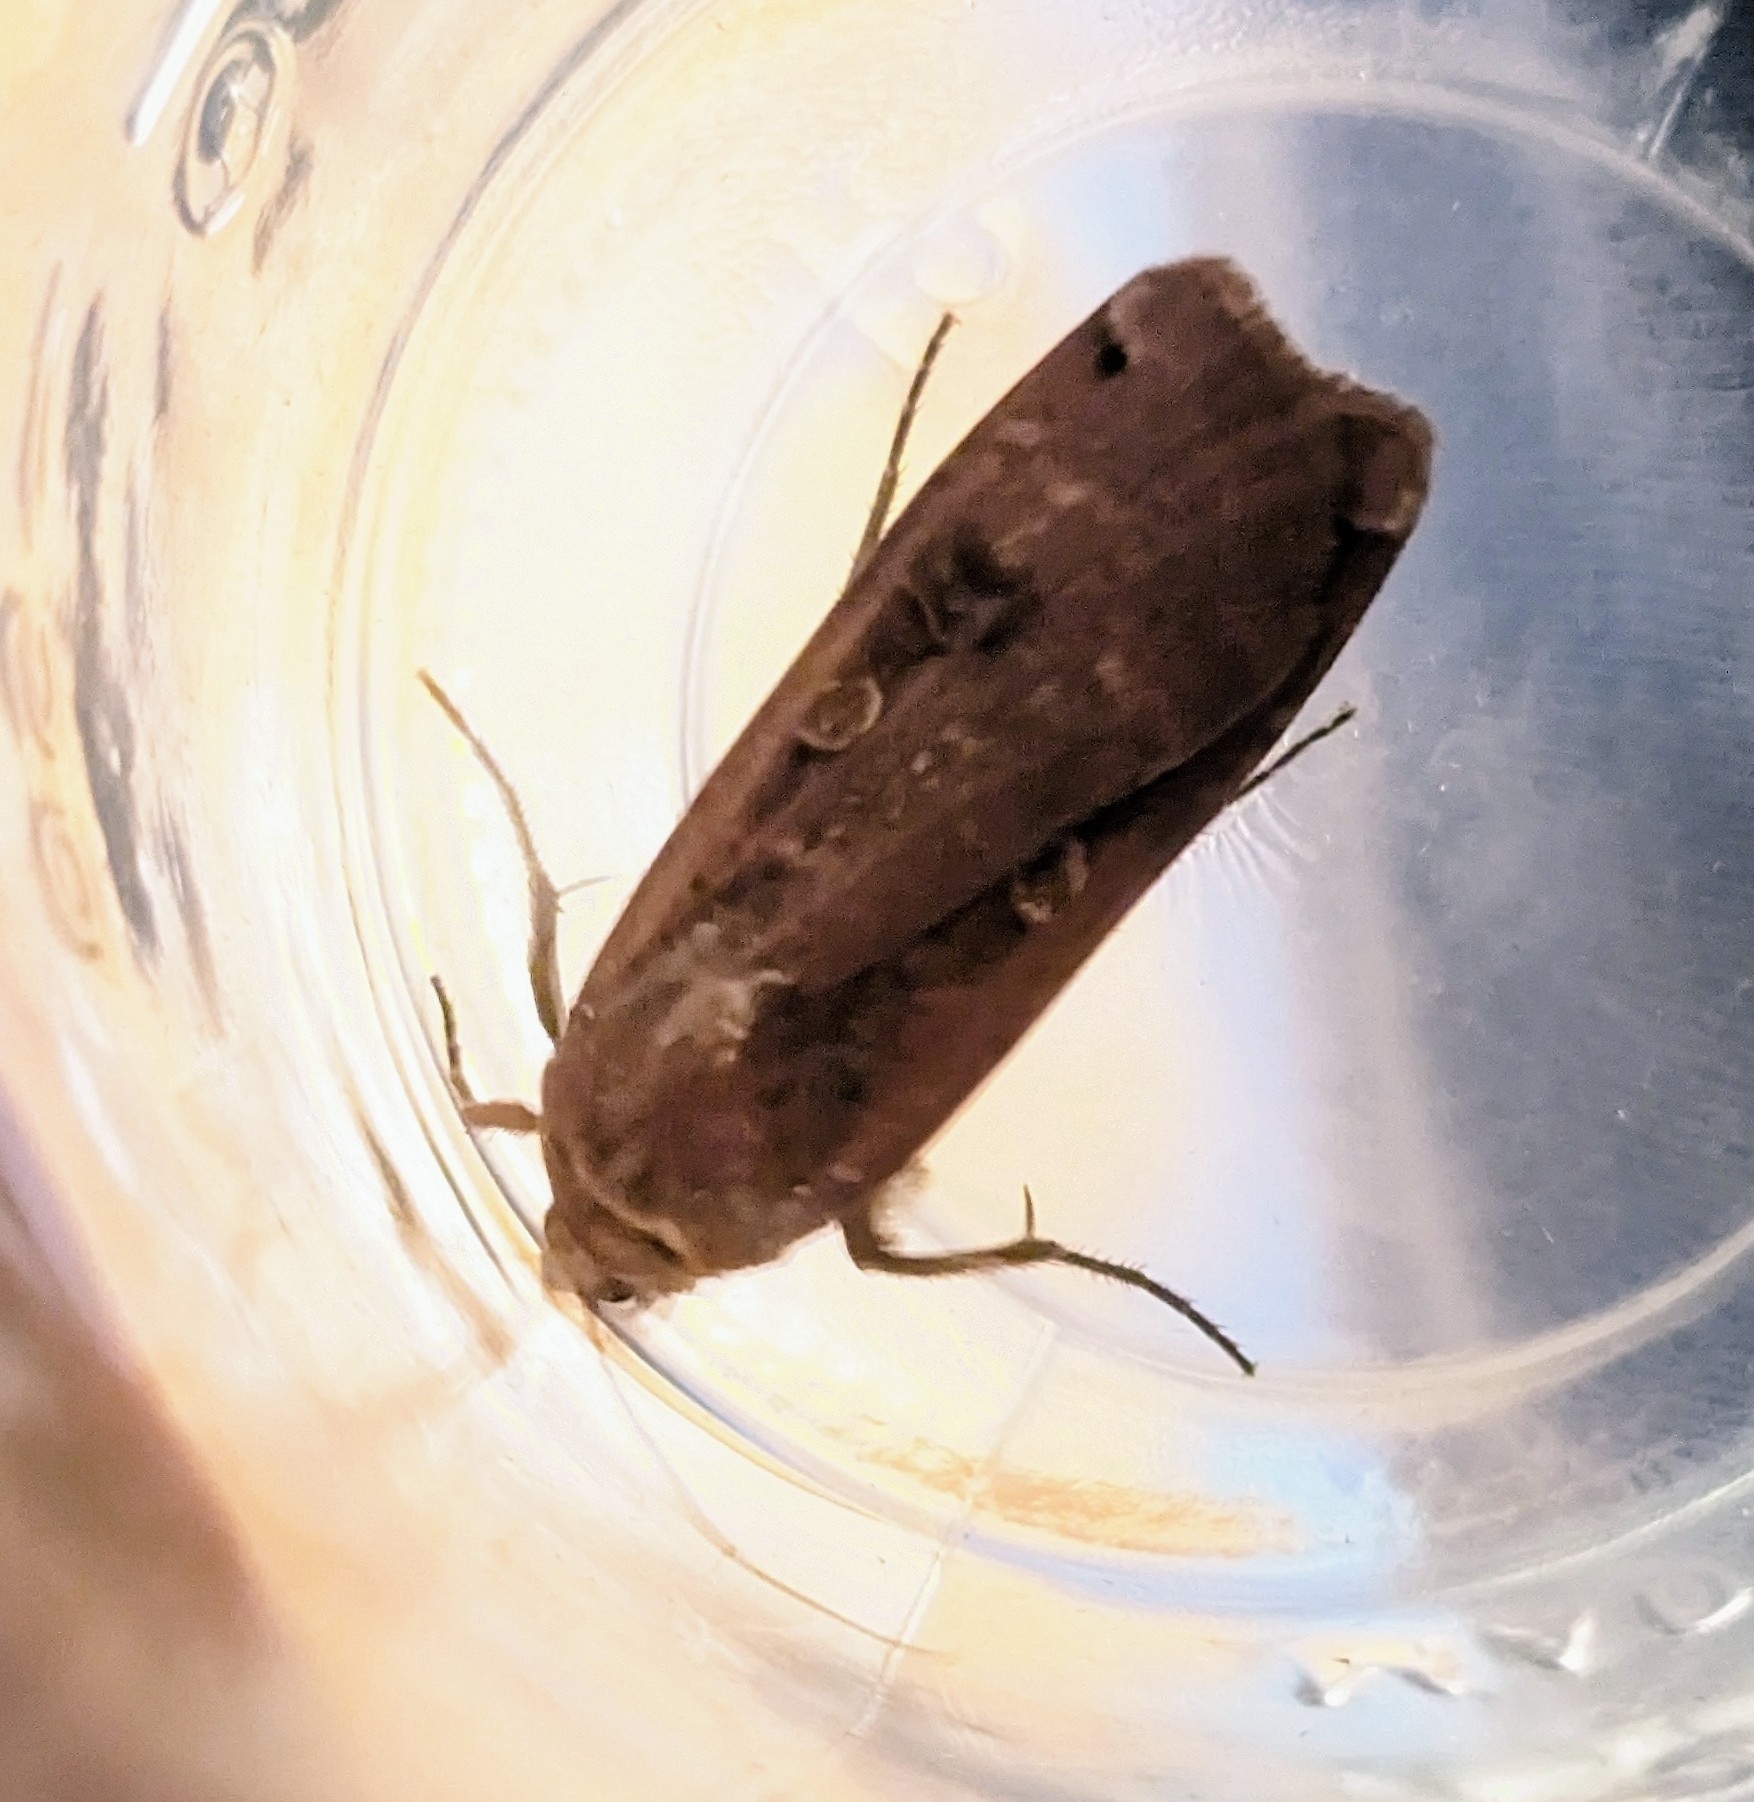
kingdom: Animalia
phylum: Arthropoda
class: Insecta
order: Lepidoptera
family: Noctuidae
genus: Noctua
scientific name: Noctua pronuba
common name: Large yellow underwing
